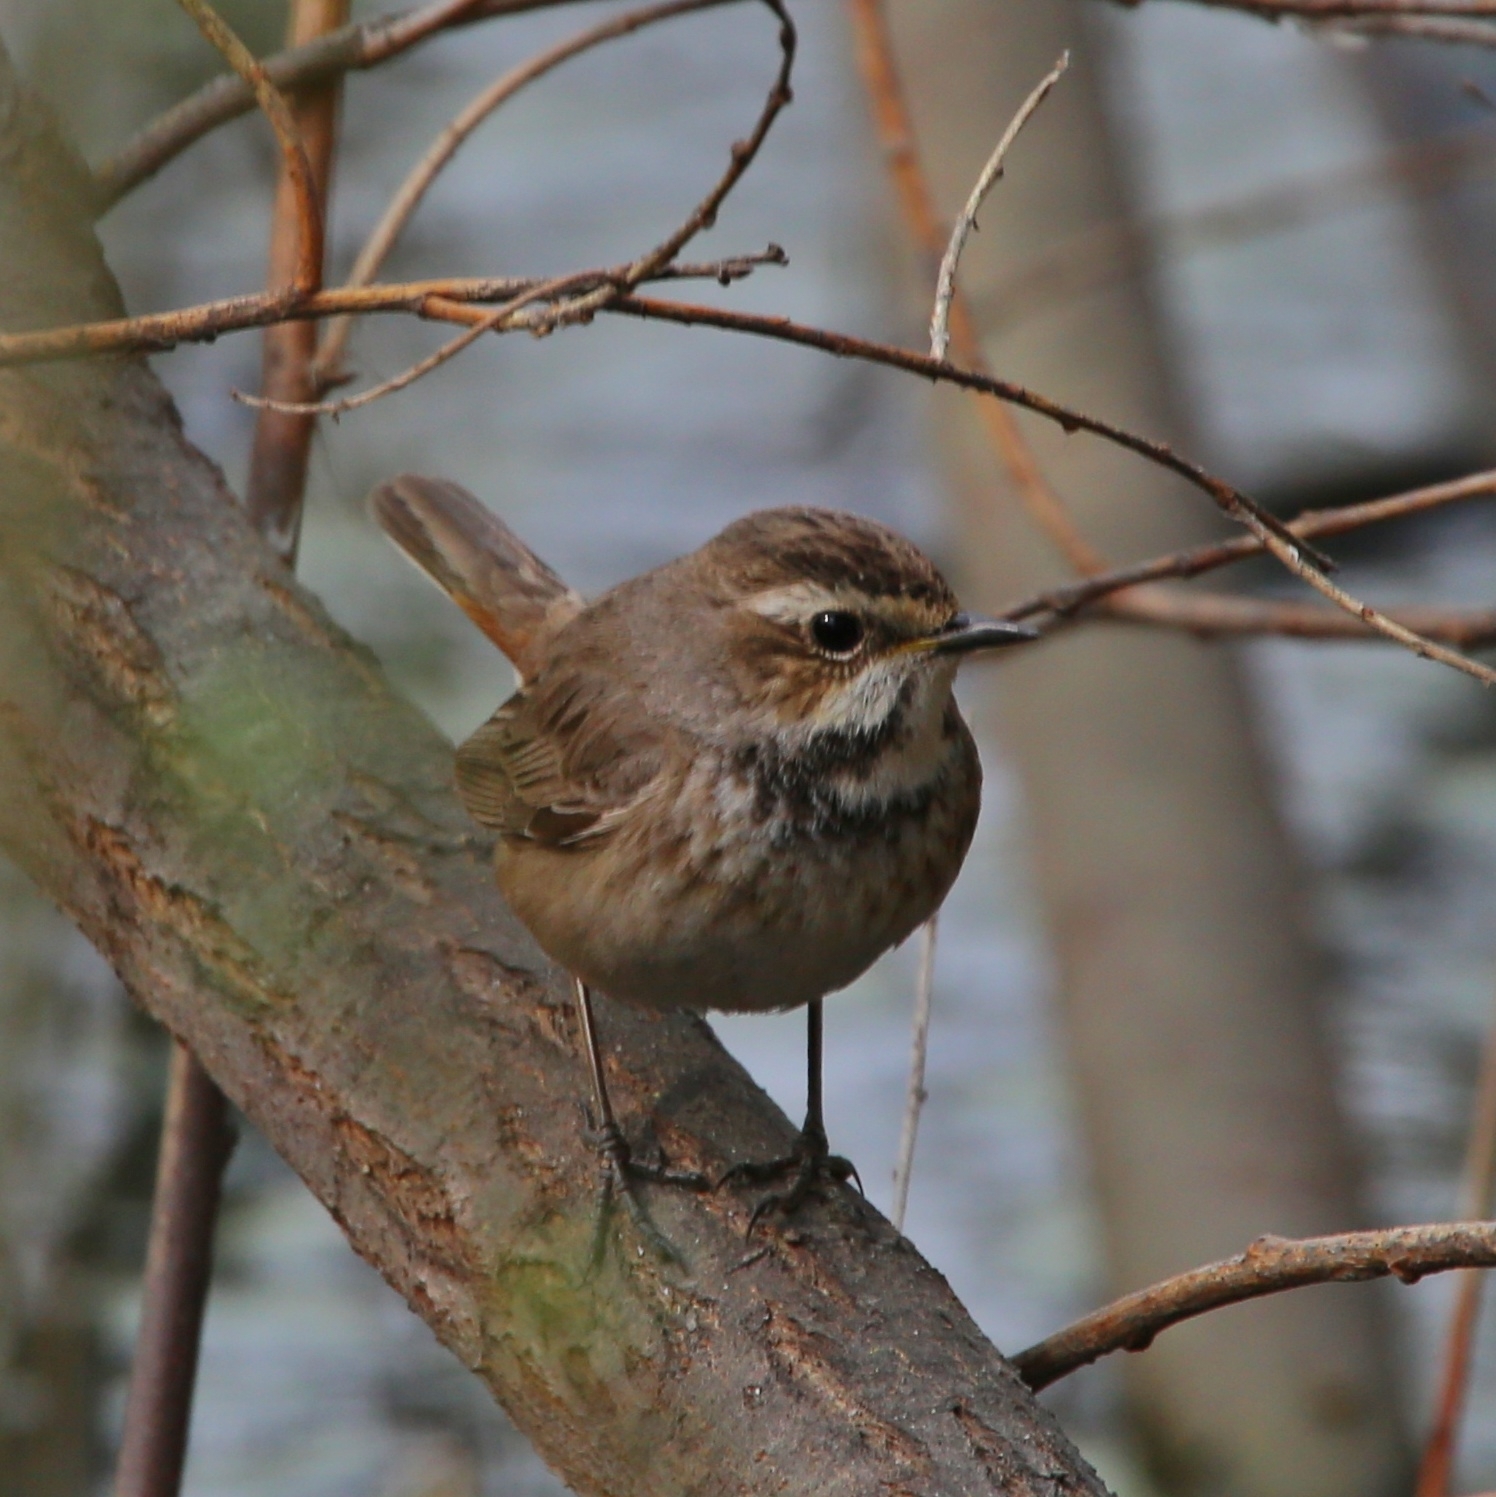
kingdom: Animalia
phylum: Chordata
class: Aves
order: Passeriformes
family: Muscicapidae
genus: Luscinia
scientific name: Luscinia svecica
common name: Bluethroat
